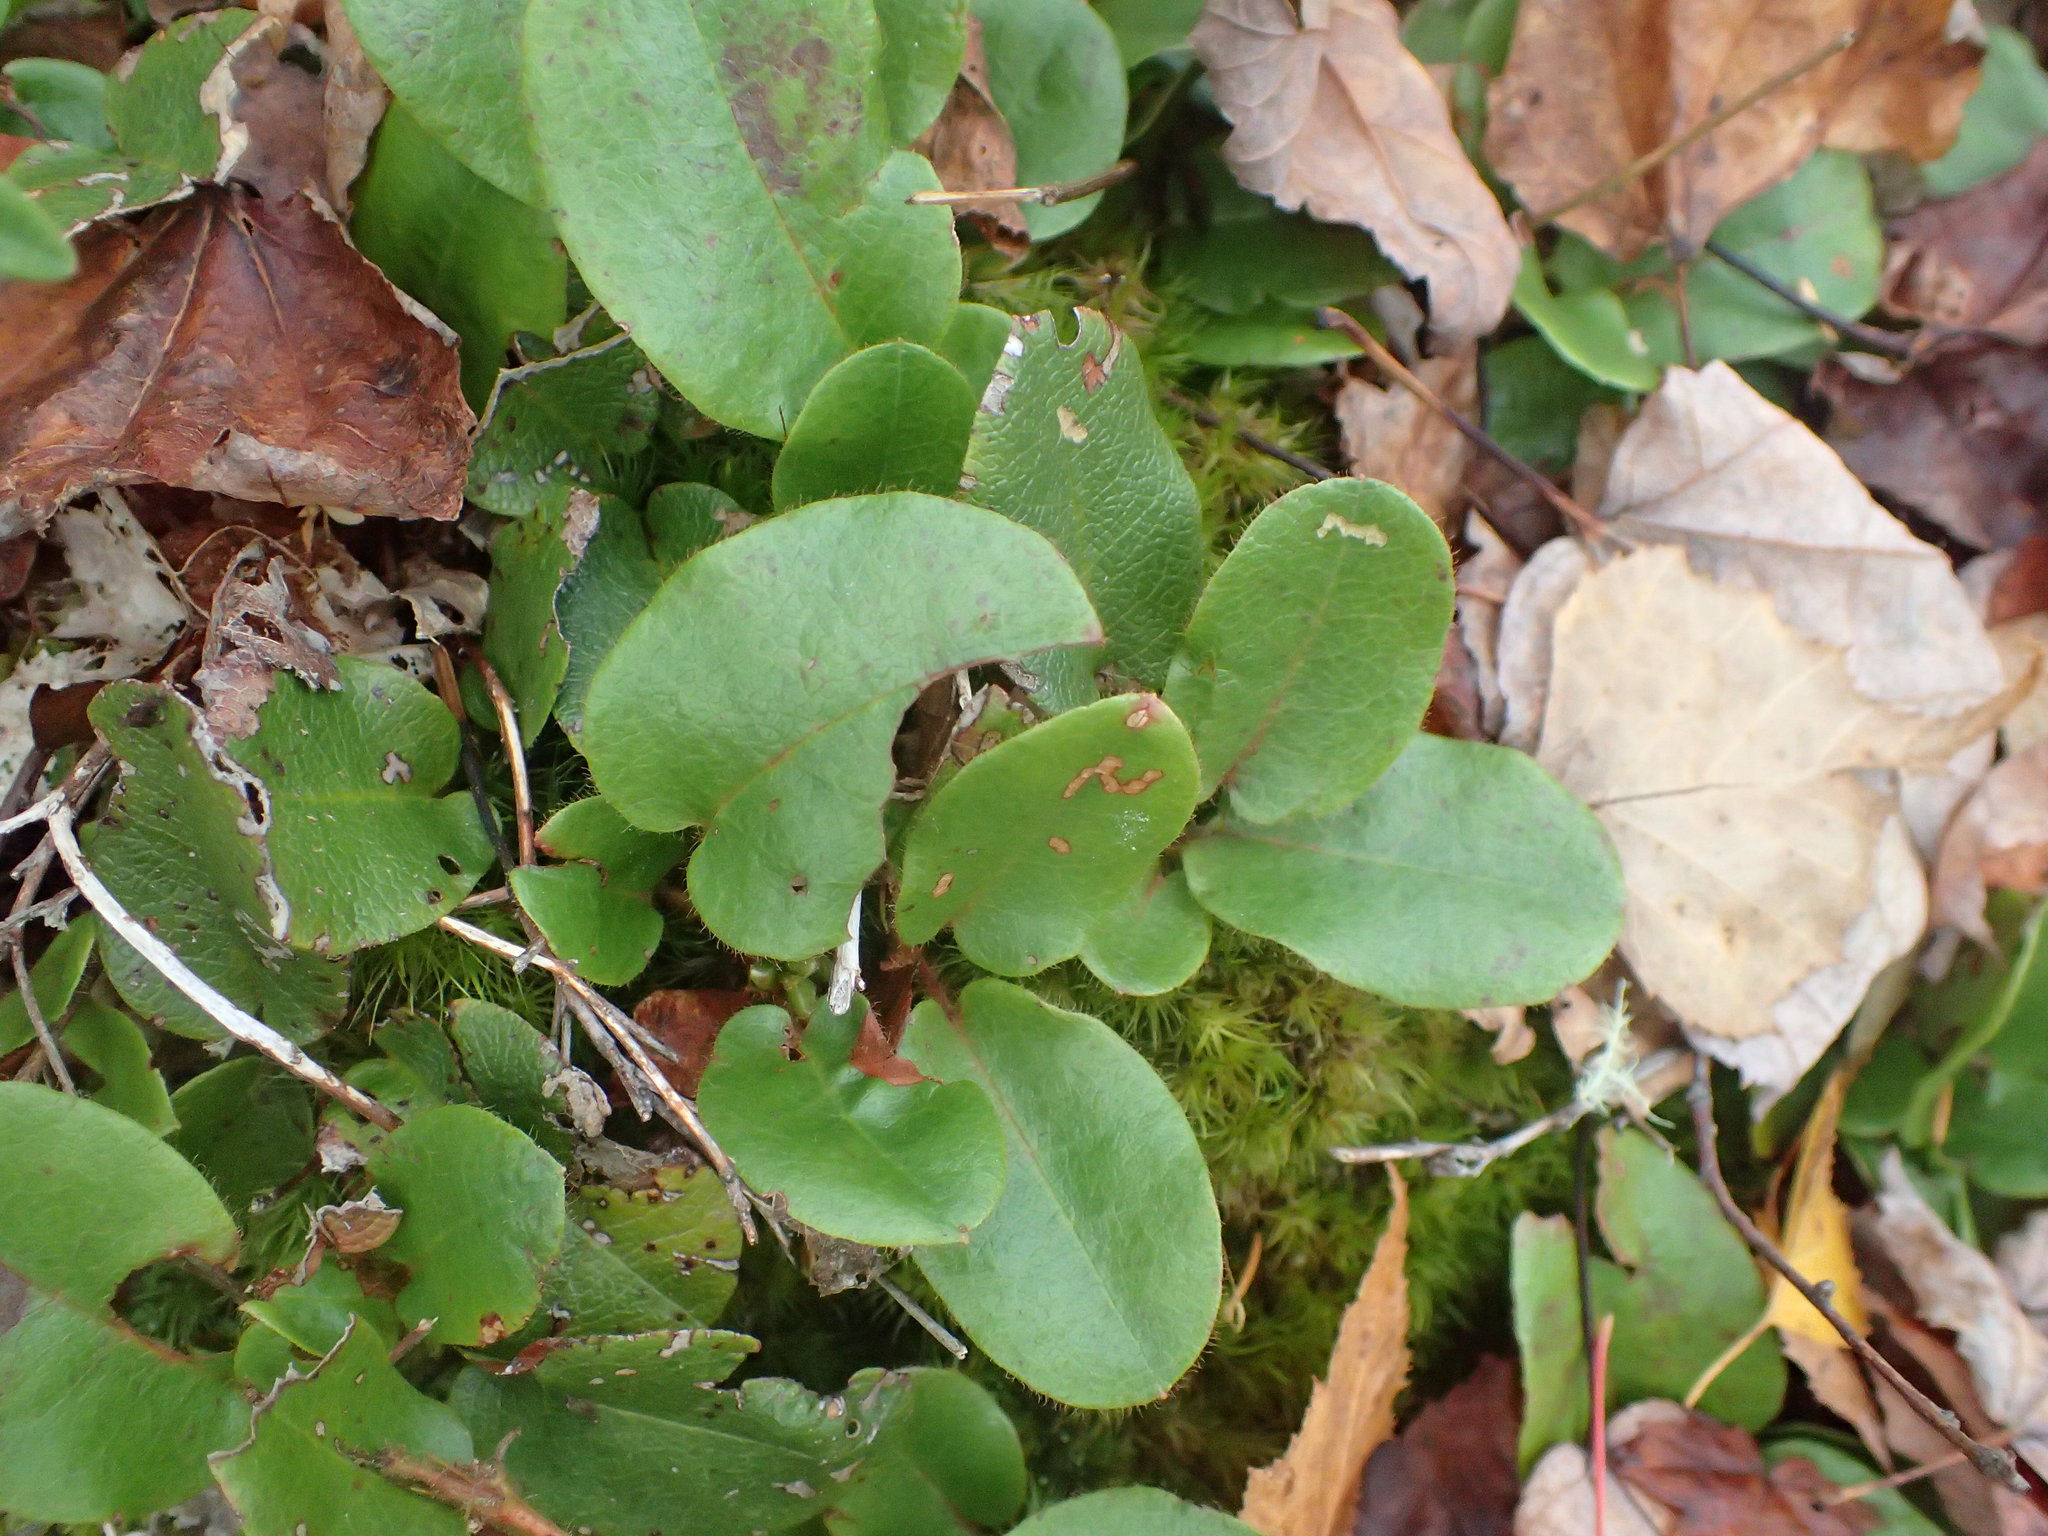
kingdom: Plantae
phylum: Tracheophyta
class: Magnoliopsida
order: Ericales
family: Ericaceae
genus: Epigaea
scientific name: Epigaea repens
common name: Gravelroot
